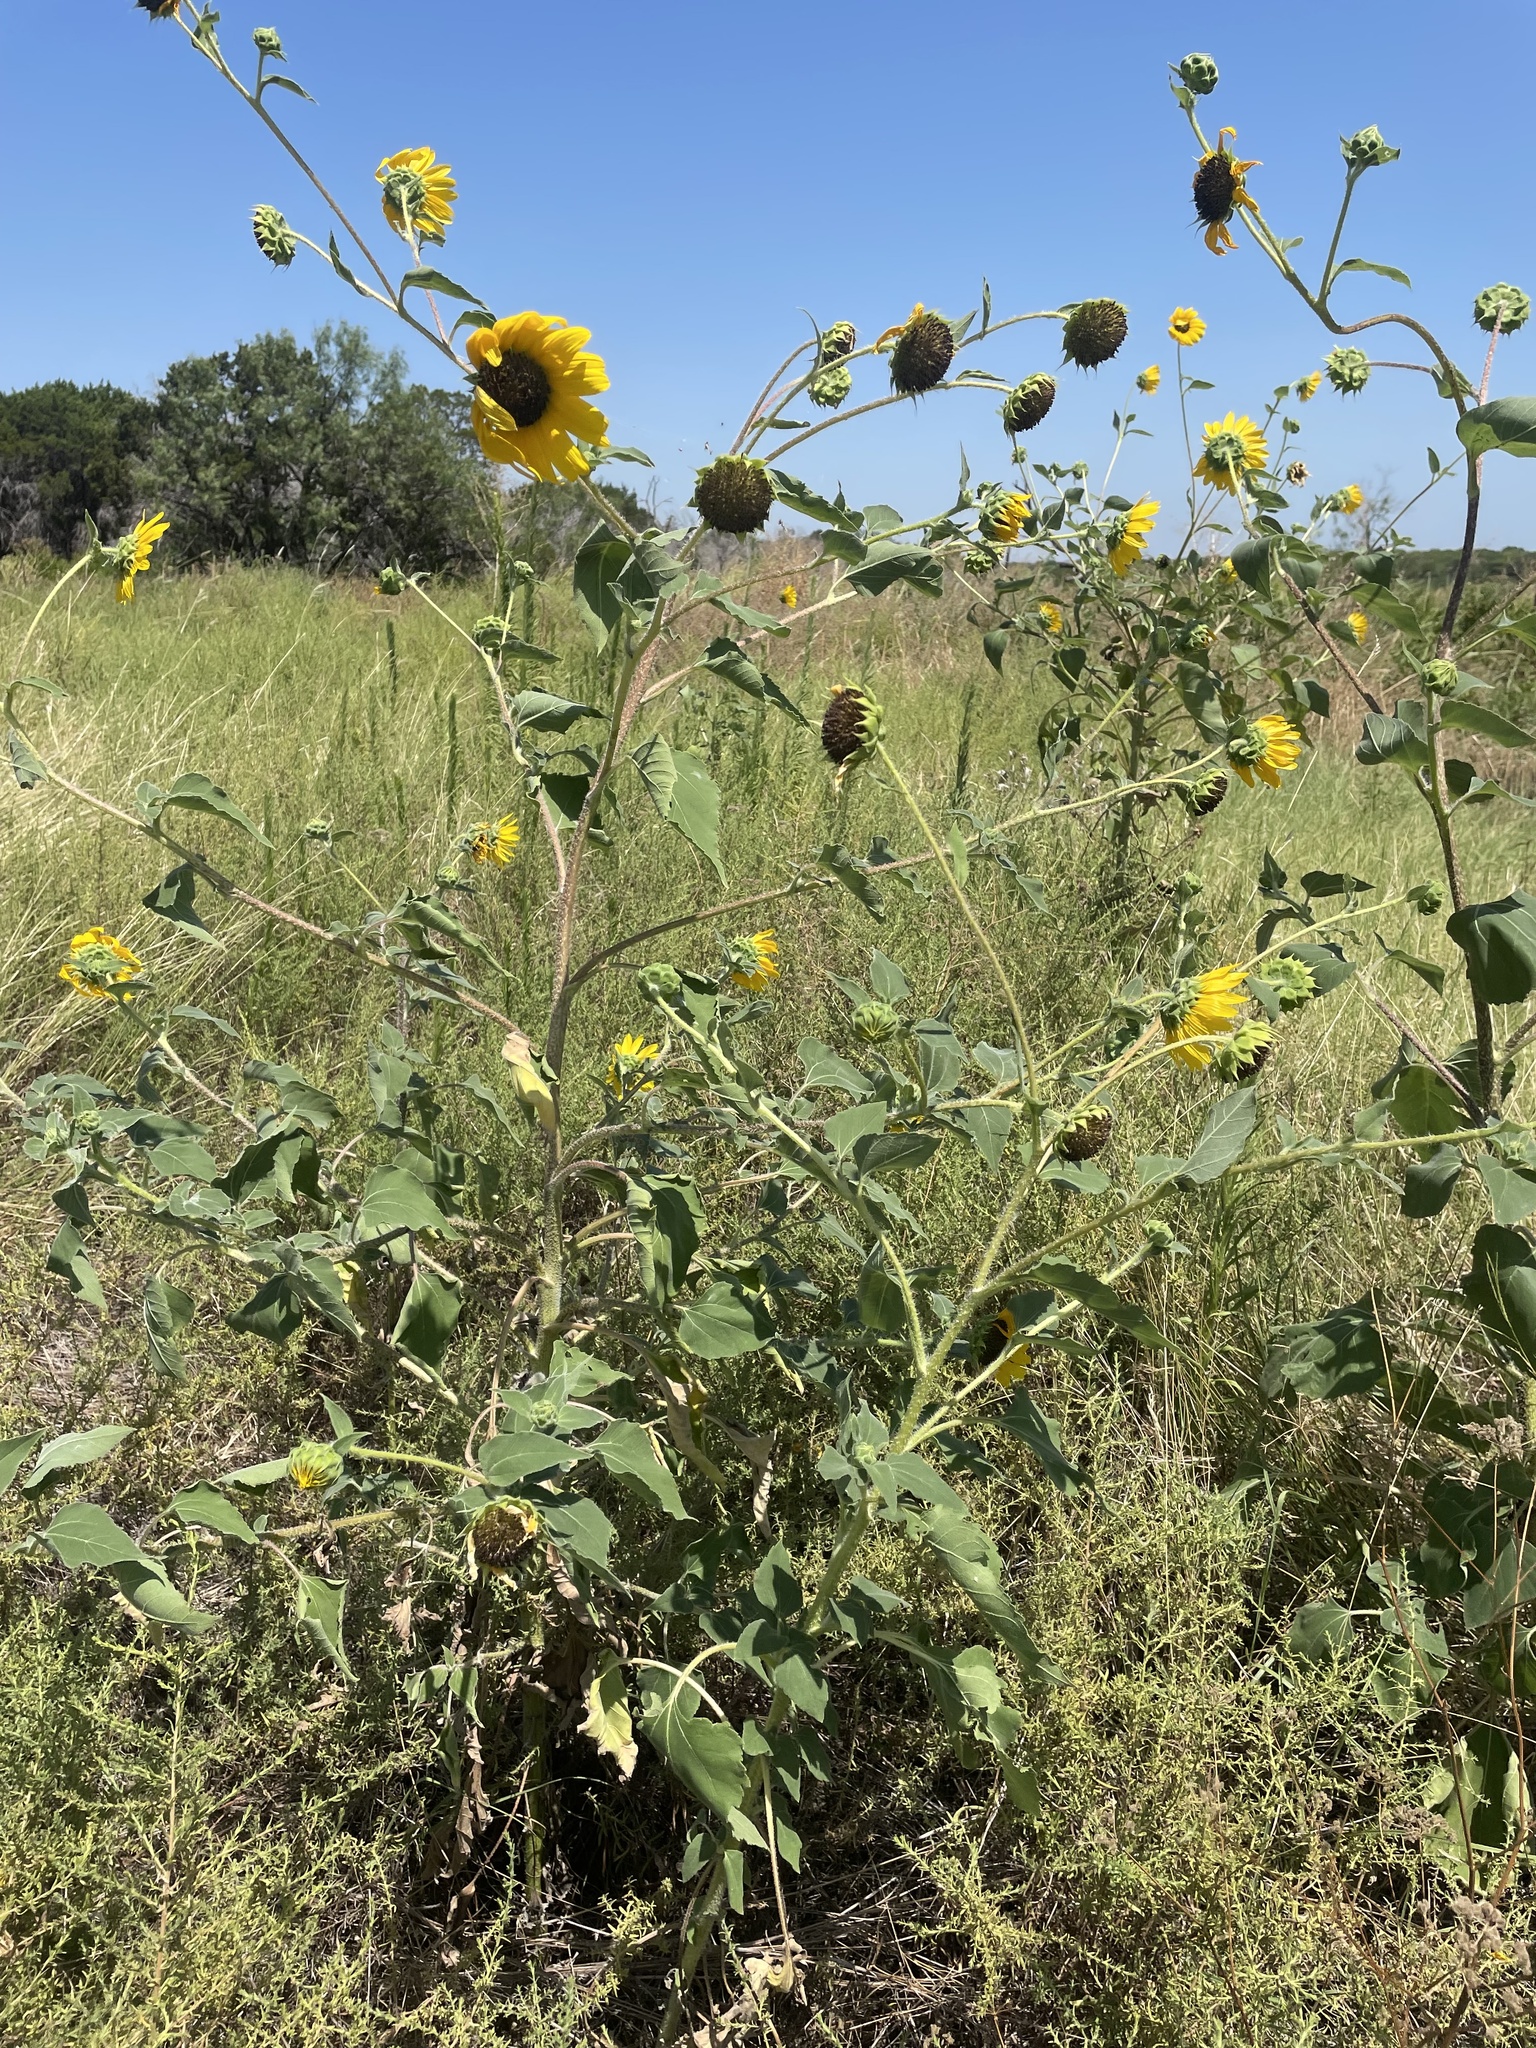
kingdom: Plantae
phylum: Tracheophyta
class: Magnoliopsida
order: Asterales
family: Asteraceae
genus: Helianthus
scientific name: Helianthus annuus
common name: Sunflower
